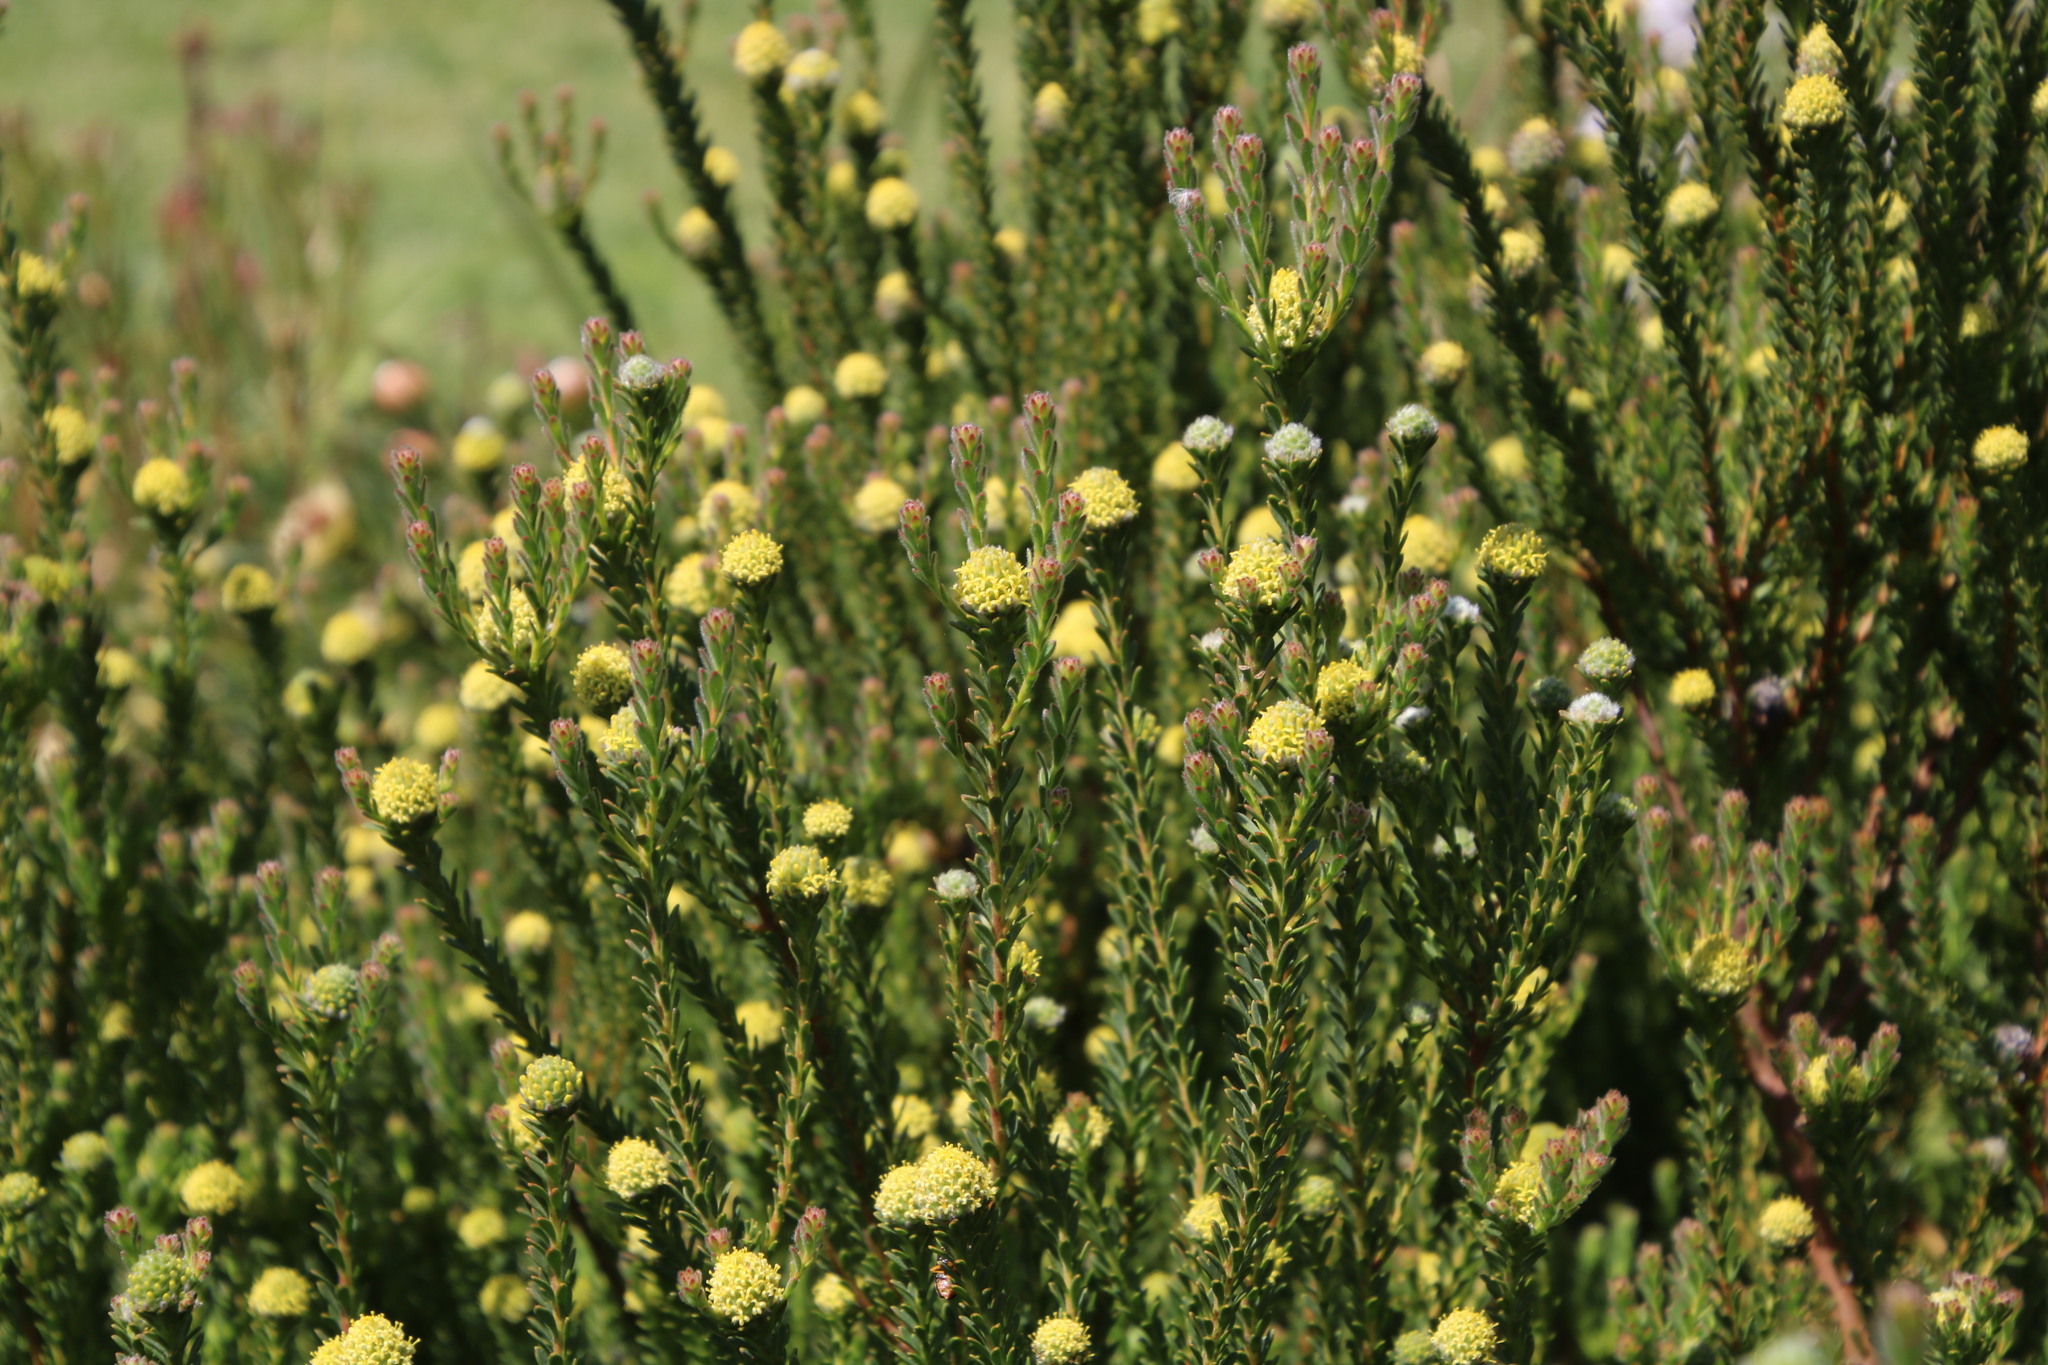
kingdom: Plantae
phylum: Tracheophyta
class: Magnoliopsida
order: Proteales
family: Proteaceae
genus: Leucadendron
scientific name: Leucadendron levisanus
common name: Cape flats conebush
